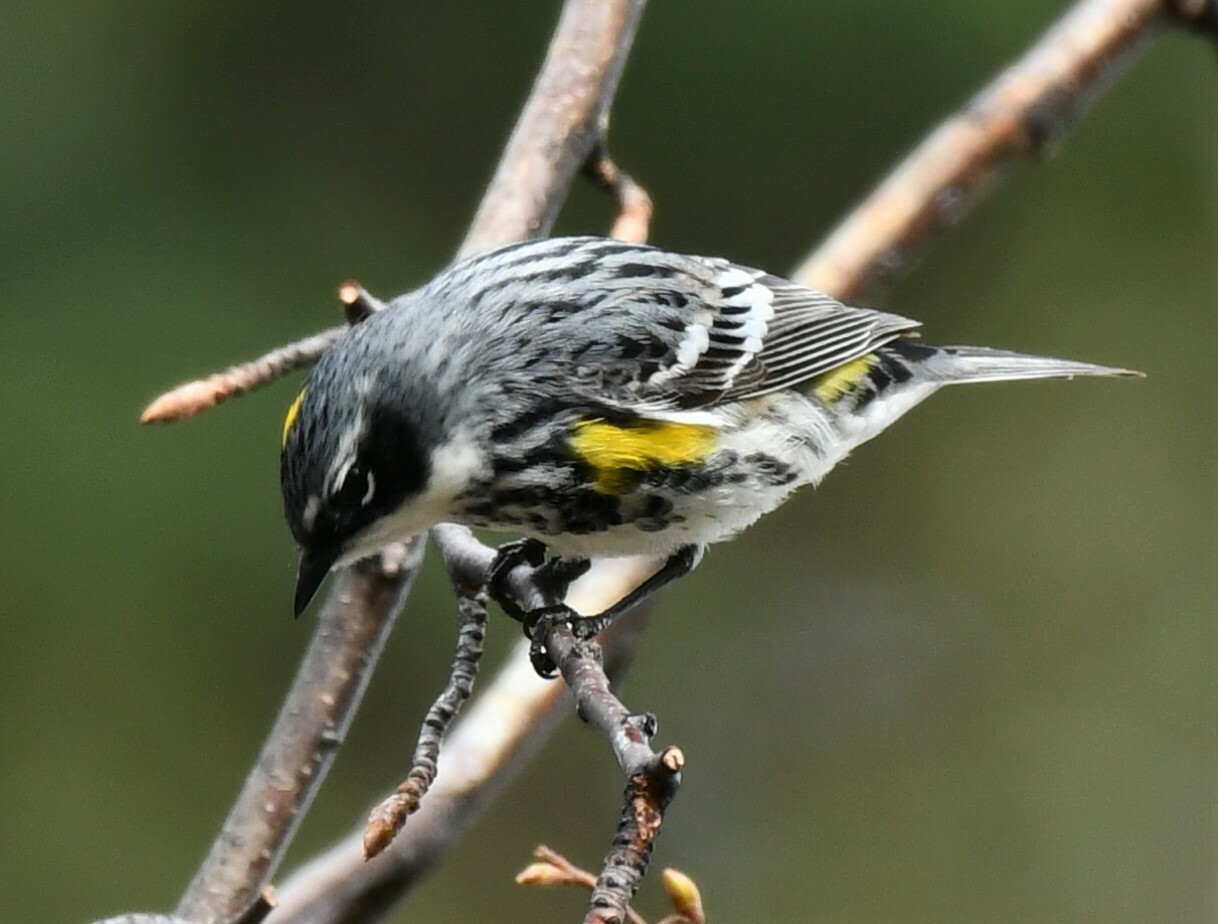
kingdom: Animalia
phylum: Chordata
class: Aves
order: Passeriformes
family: Parulidae
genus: Setophaga
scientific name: Setophaga coronata
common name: Myrtle warbler
